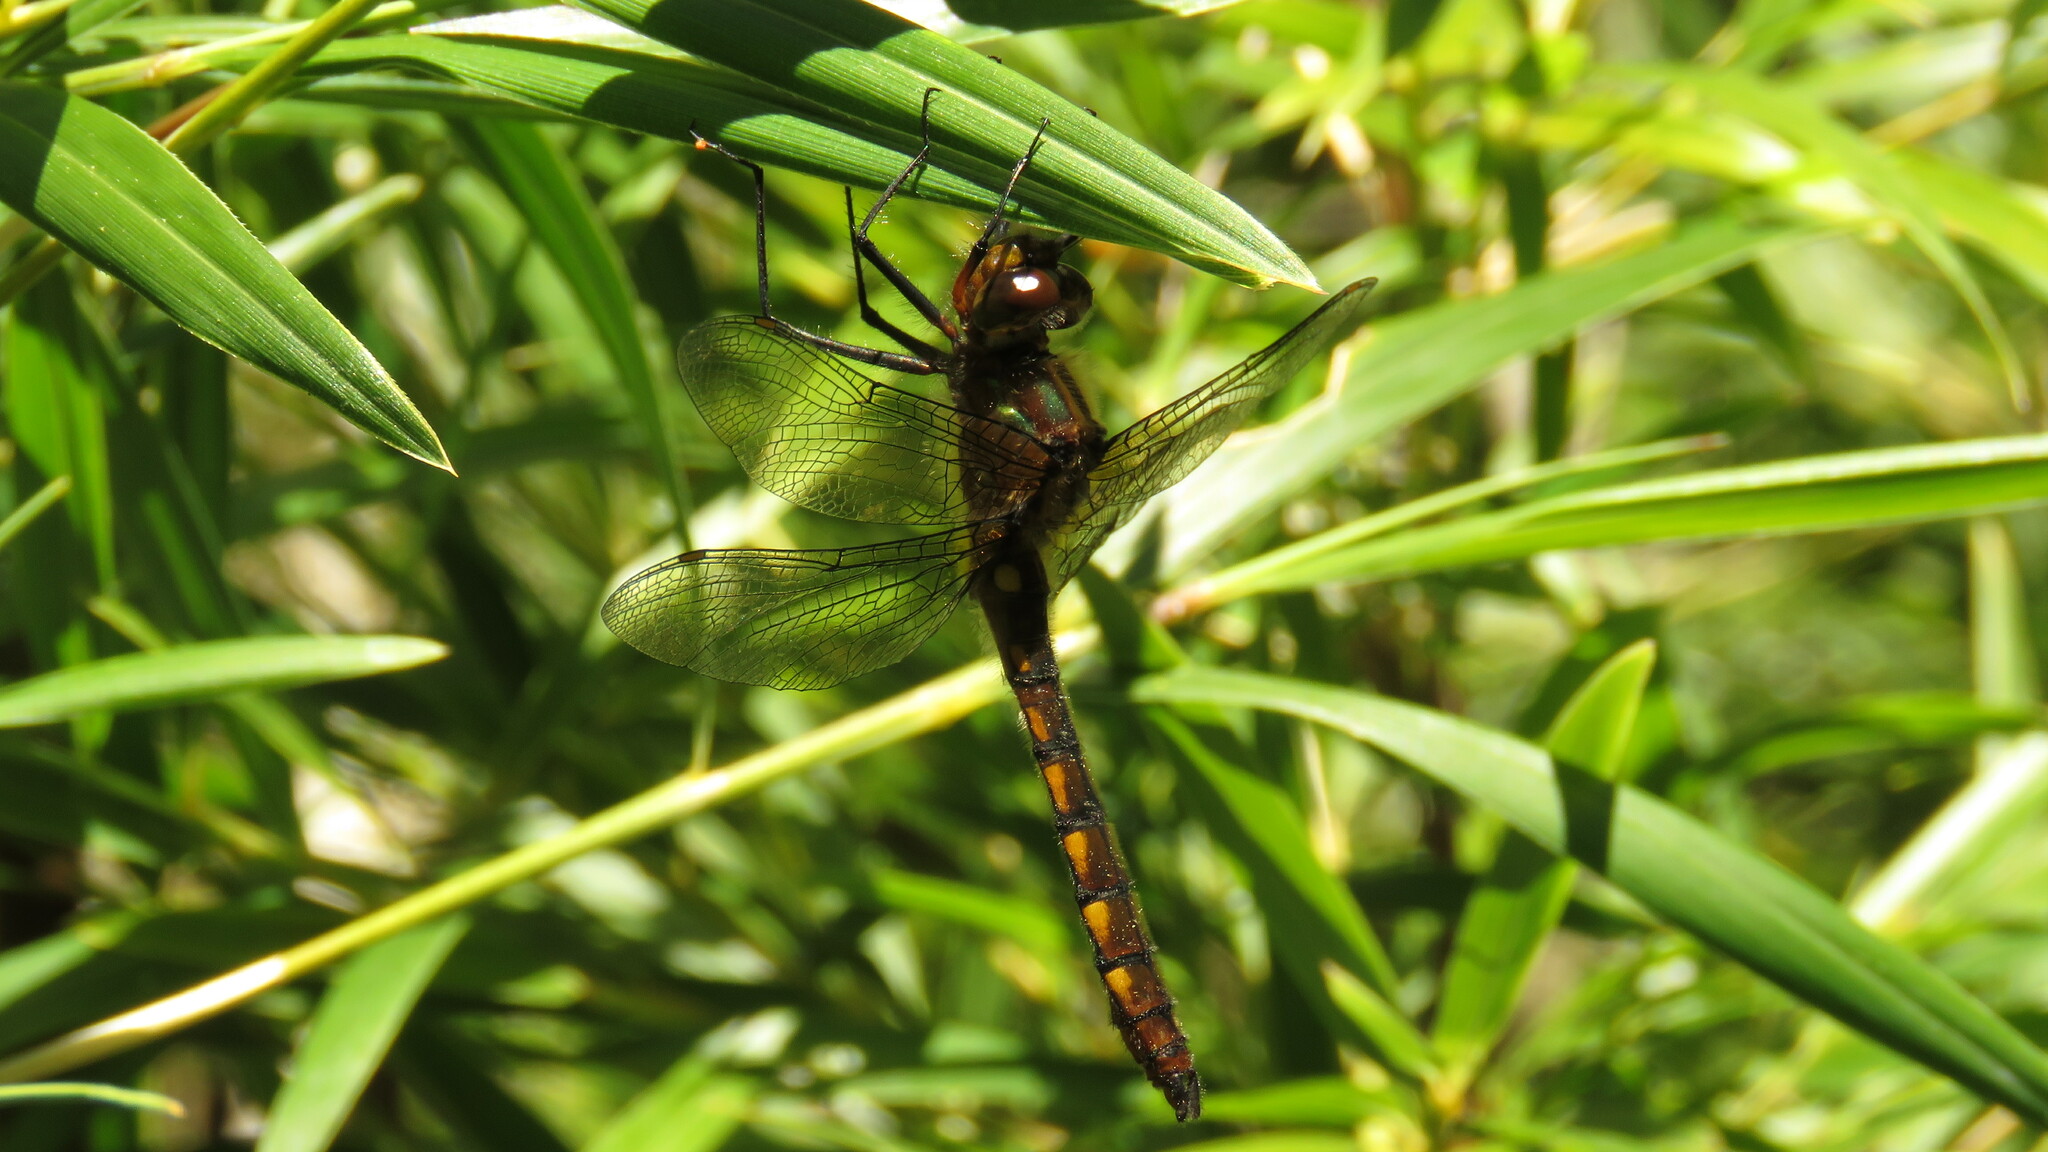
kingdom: Animalia
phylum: Arthropoda
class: Insecta
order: Odonata
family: Corduliidae
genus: Rialla
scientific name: Rialla villosa
